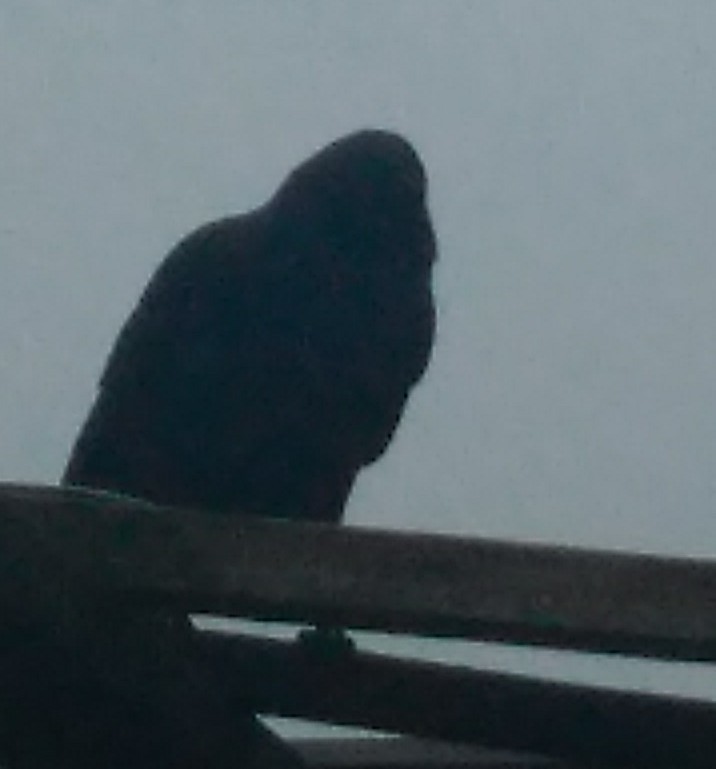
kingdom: Animalia
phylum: Chordata
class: Aves
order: Passeriformes
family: Corvidae
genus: Corvus
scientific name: Corvus brachyrhynchos
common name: American crow
